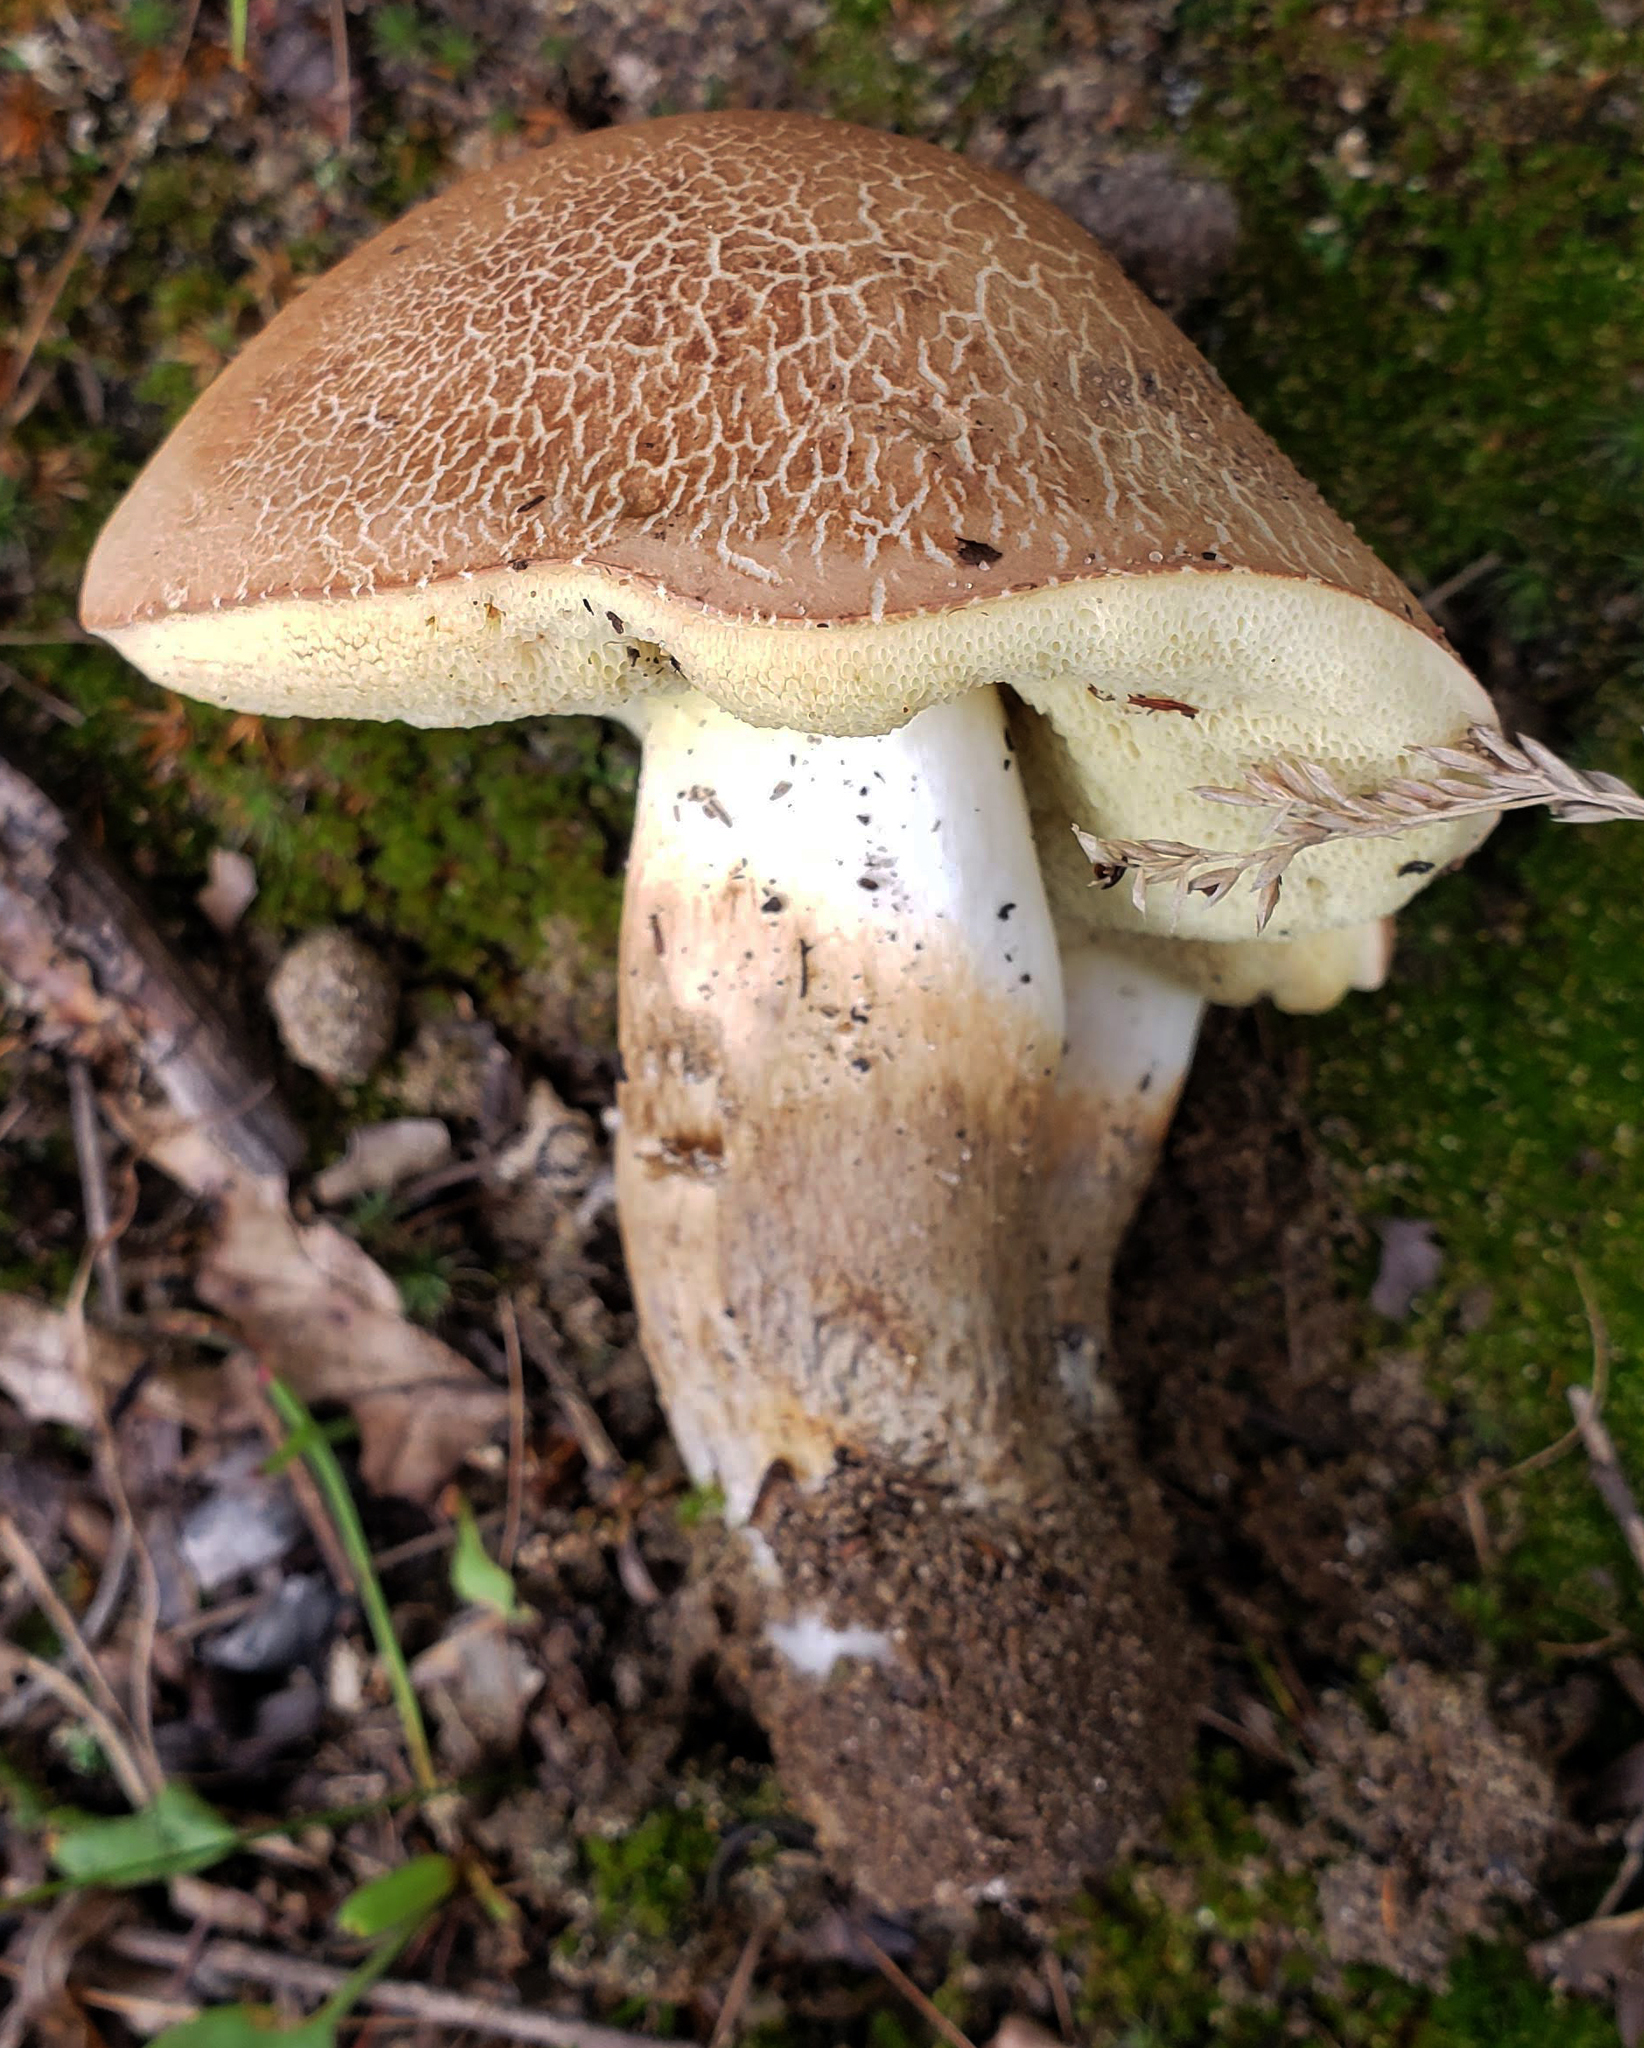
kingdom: Fungi
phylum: Basidiomycota
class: Agaricomycetes
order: Boletales
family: Boletaceae
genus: Imleria
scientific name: Imleria pallida
